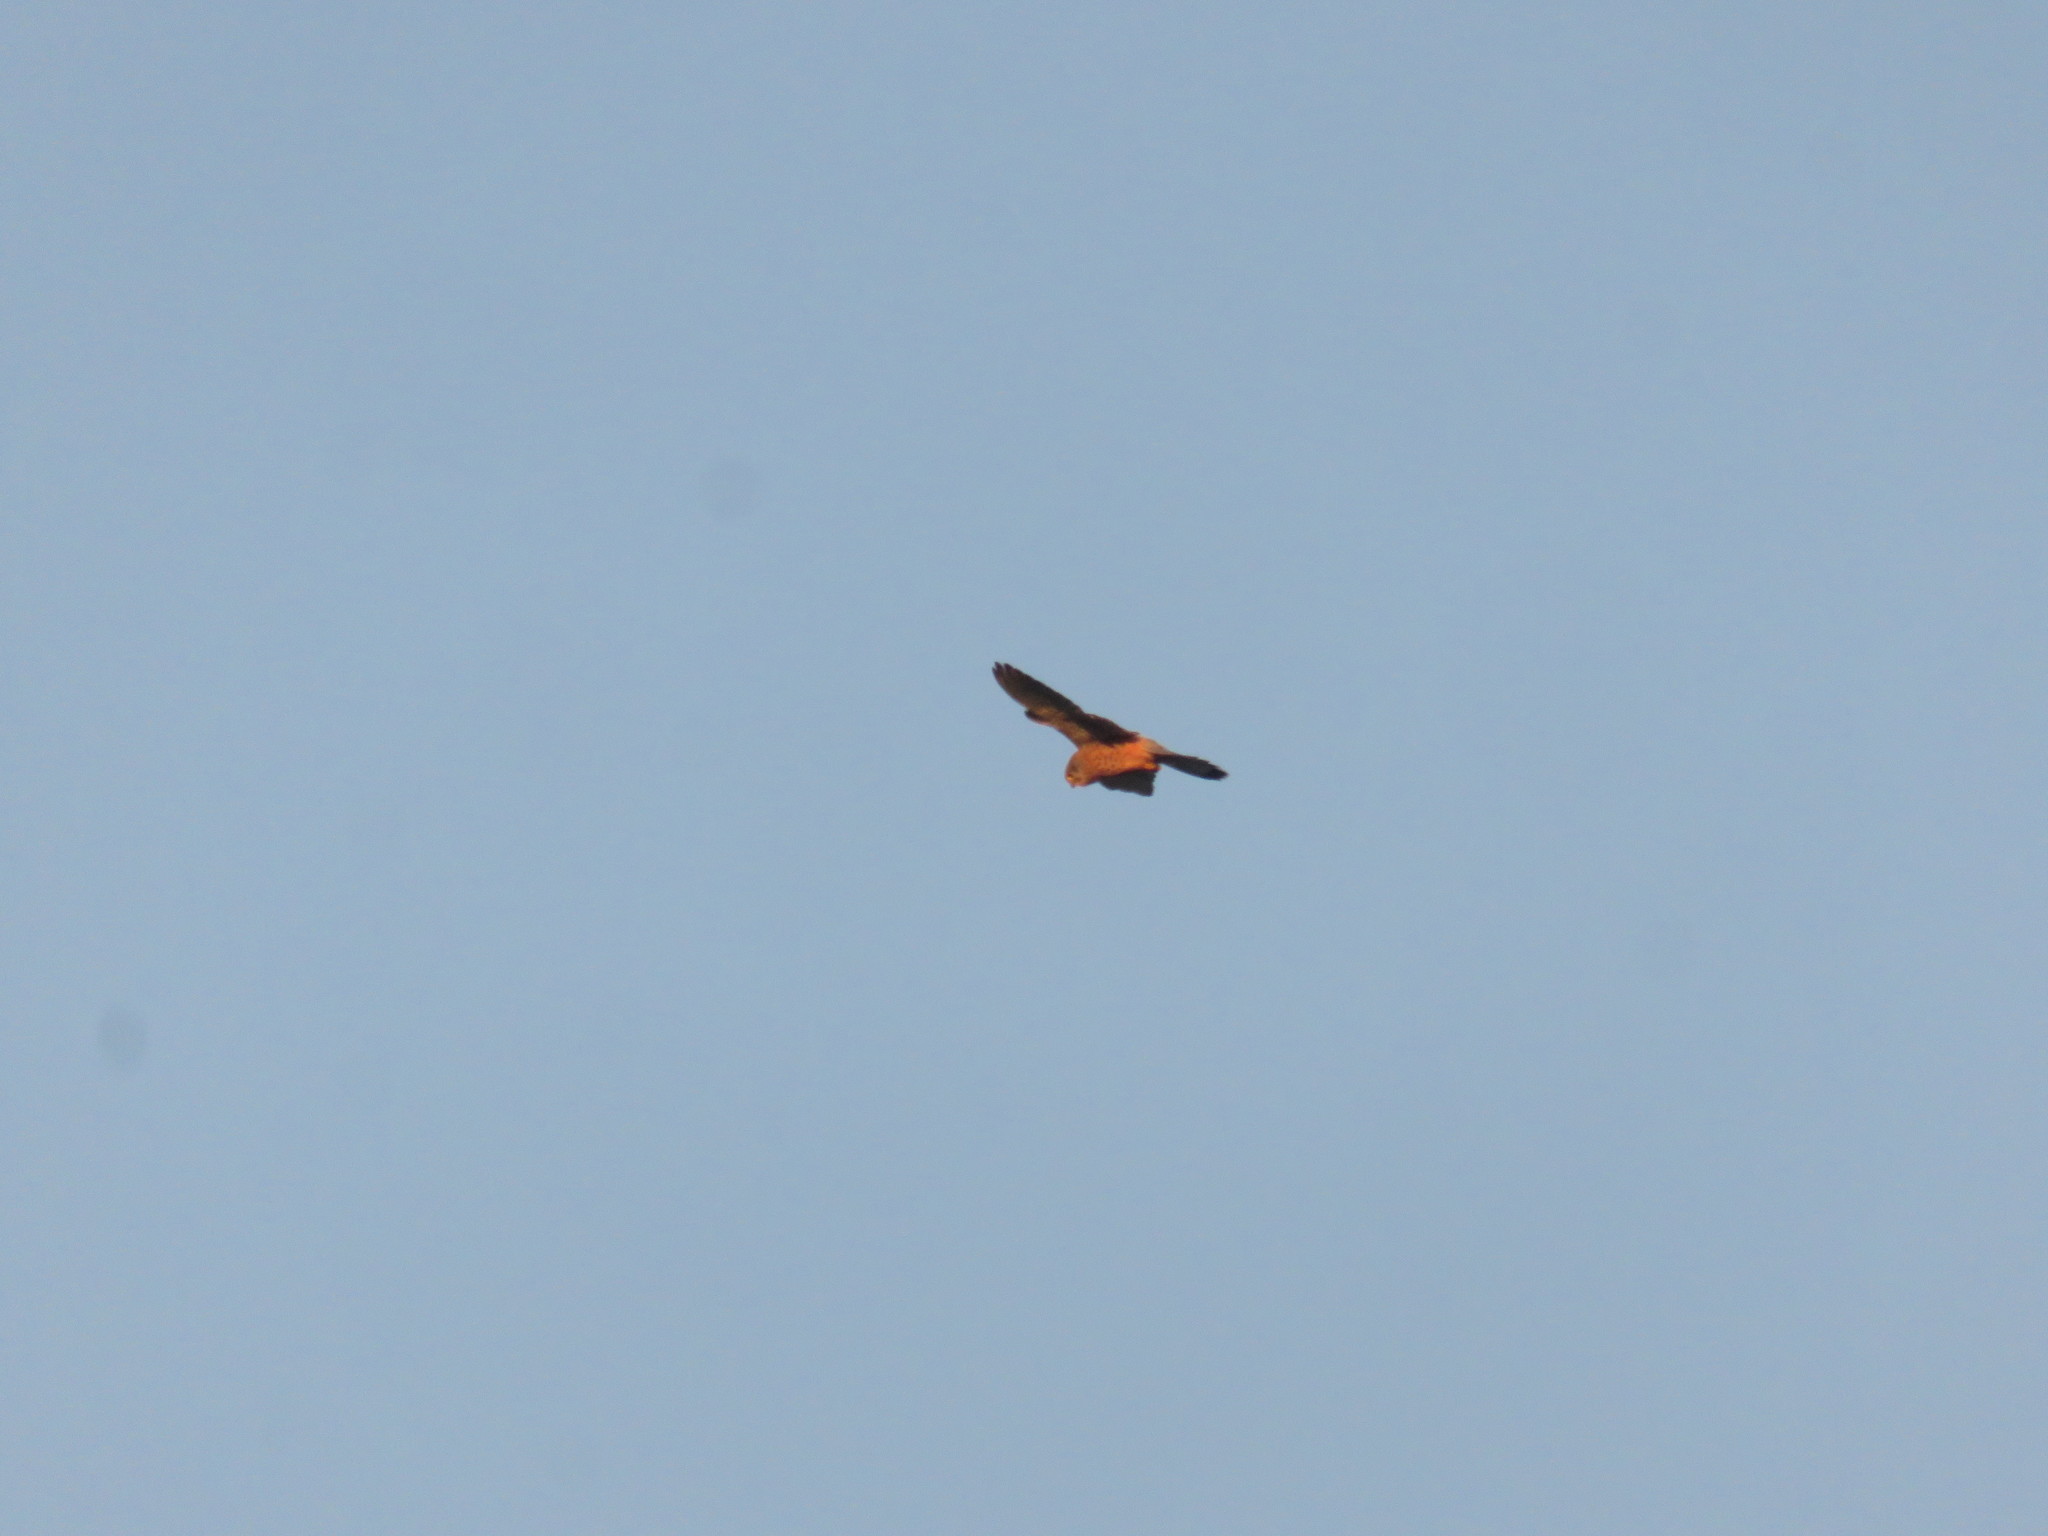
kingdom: Animalia
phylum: Chordata
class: Aves
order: Falconiformes
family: Falconidae
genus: Falco
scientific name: Falco tinnunculus
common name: Common kestrel
